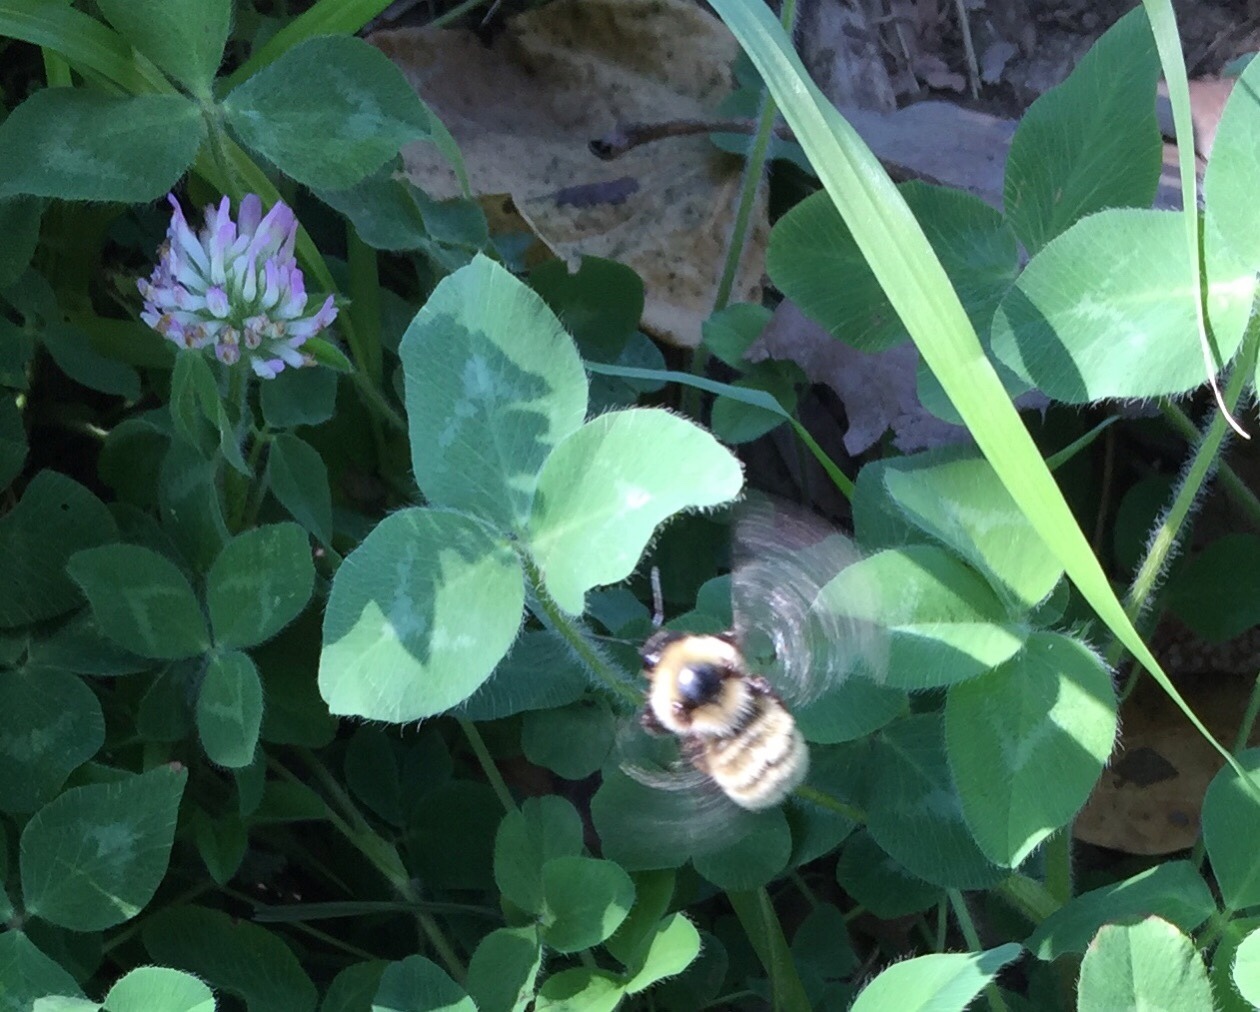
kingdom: Animalia
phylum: Arthropoda
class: Insecta
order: Hymenoptera
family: Apidae
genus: Bombus
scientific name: Bombus fervidus
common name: Yellow bumble bee
